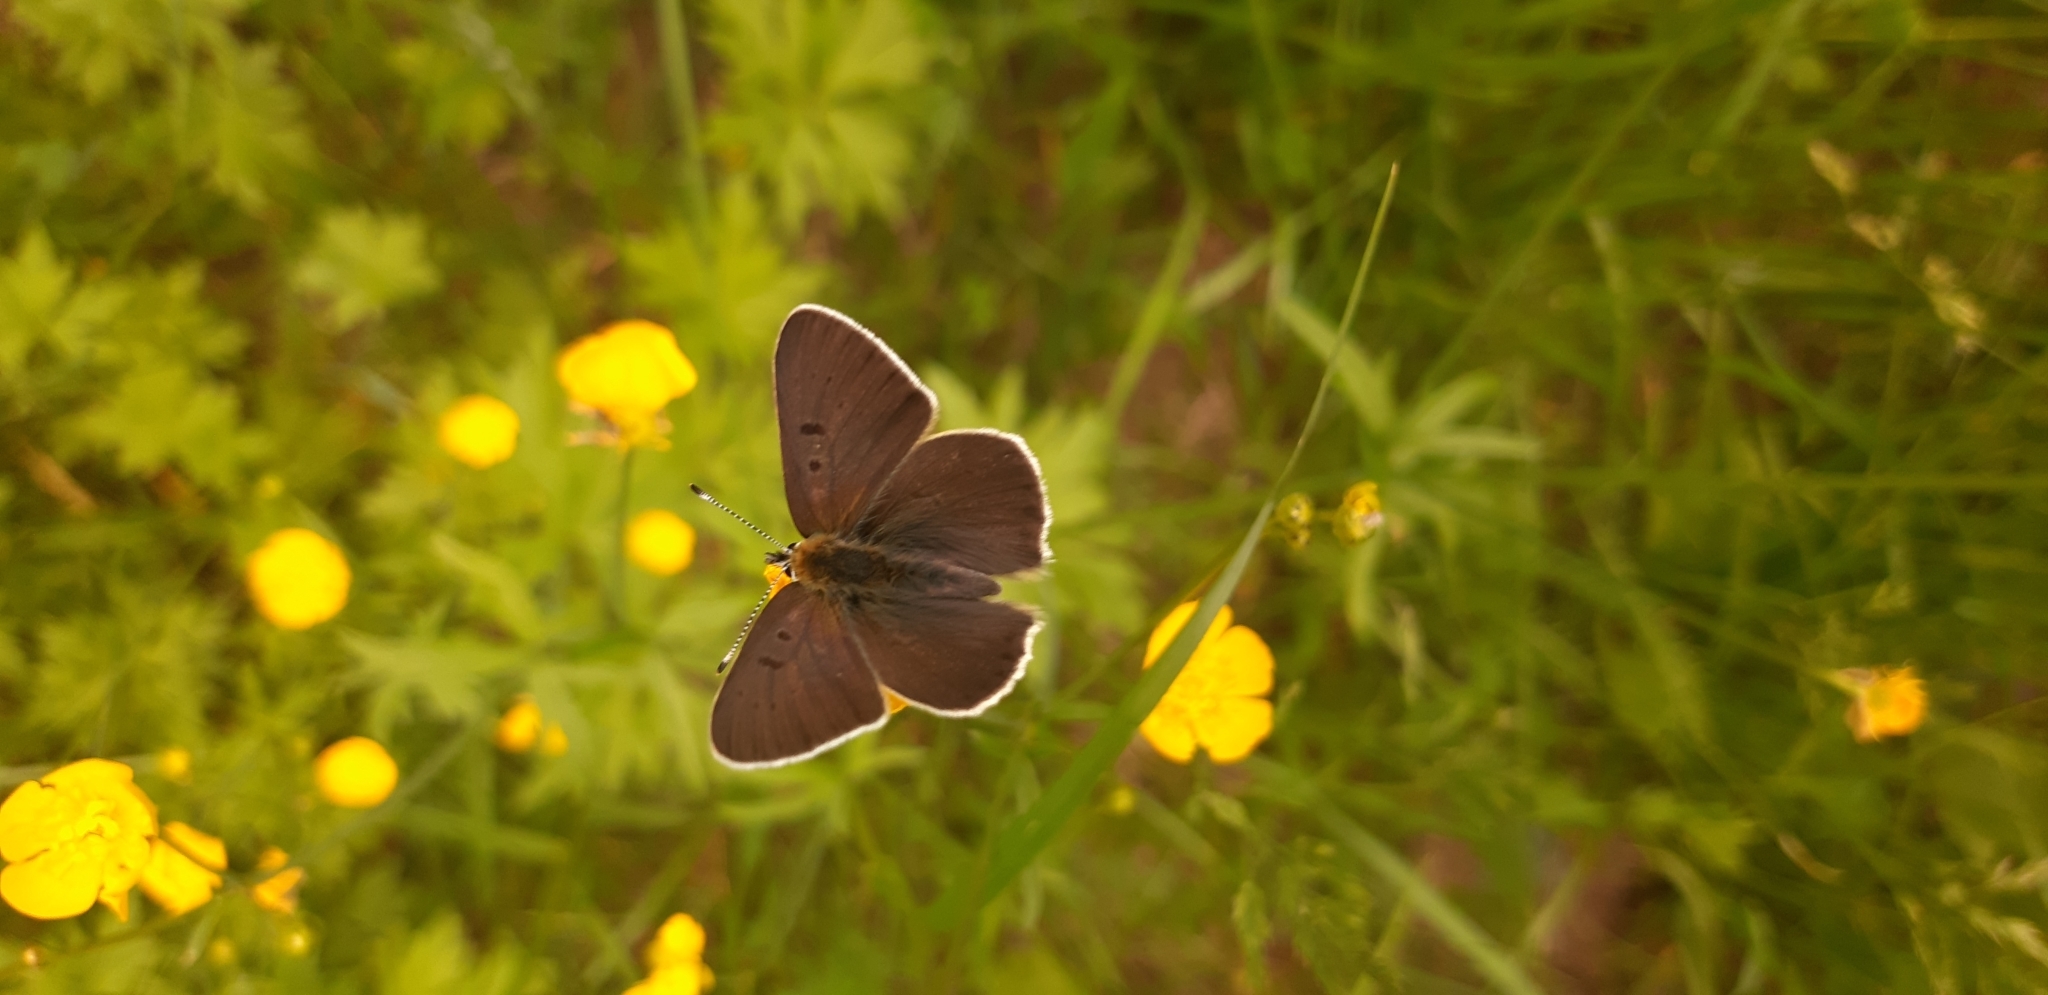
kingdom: Animalia
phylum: Arthropoda
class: Insecta
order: Lepidoptera
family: Lycaenidae
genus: Loweia
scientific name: Loweia tityrus
